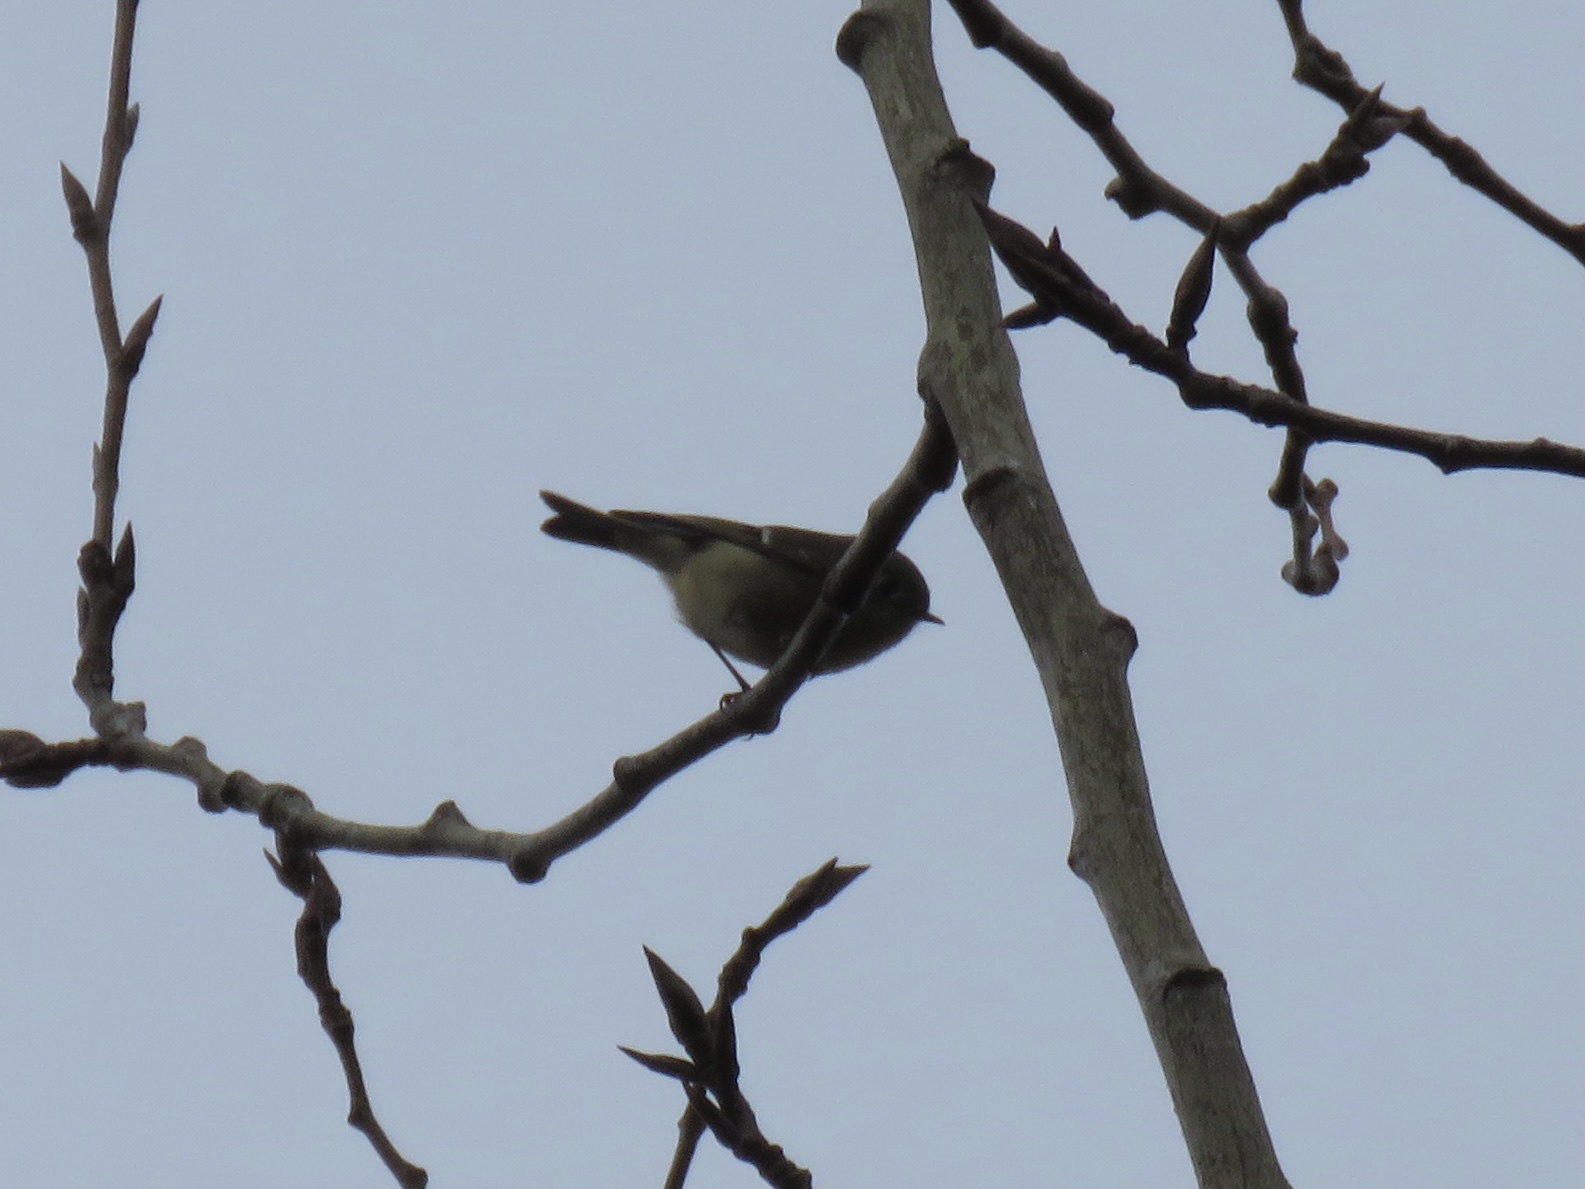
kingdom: Animalia
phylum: Chordata
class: Aves
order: Passeriformes
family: Regulidae
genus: Regulus
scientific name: Regulus calendula
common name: Ruby-crowned kinglet
